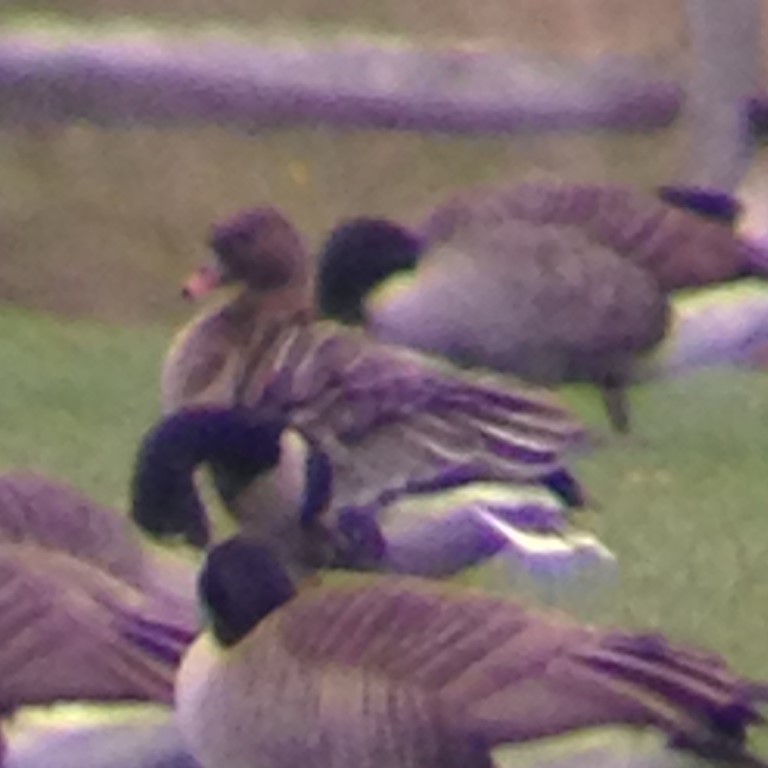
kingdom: Animalia
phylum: Chordata
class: Aves
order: Anseriformes
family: Anatidae
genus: Anser
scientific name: Anser brachyrhynchus
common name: Pink-footed goose
